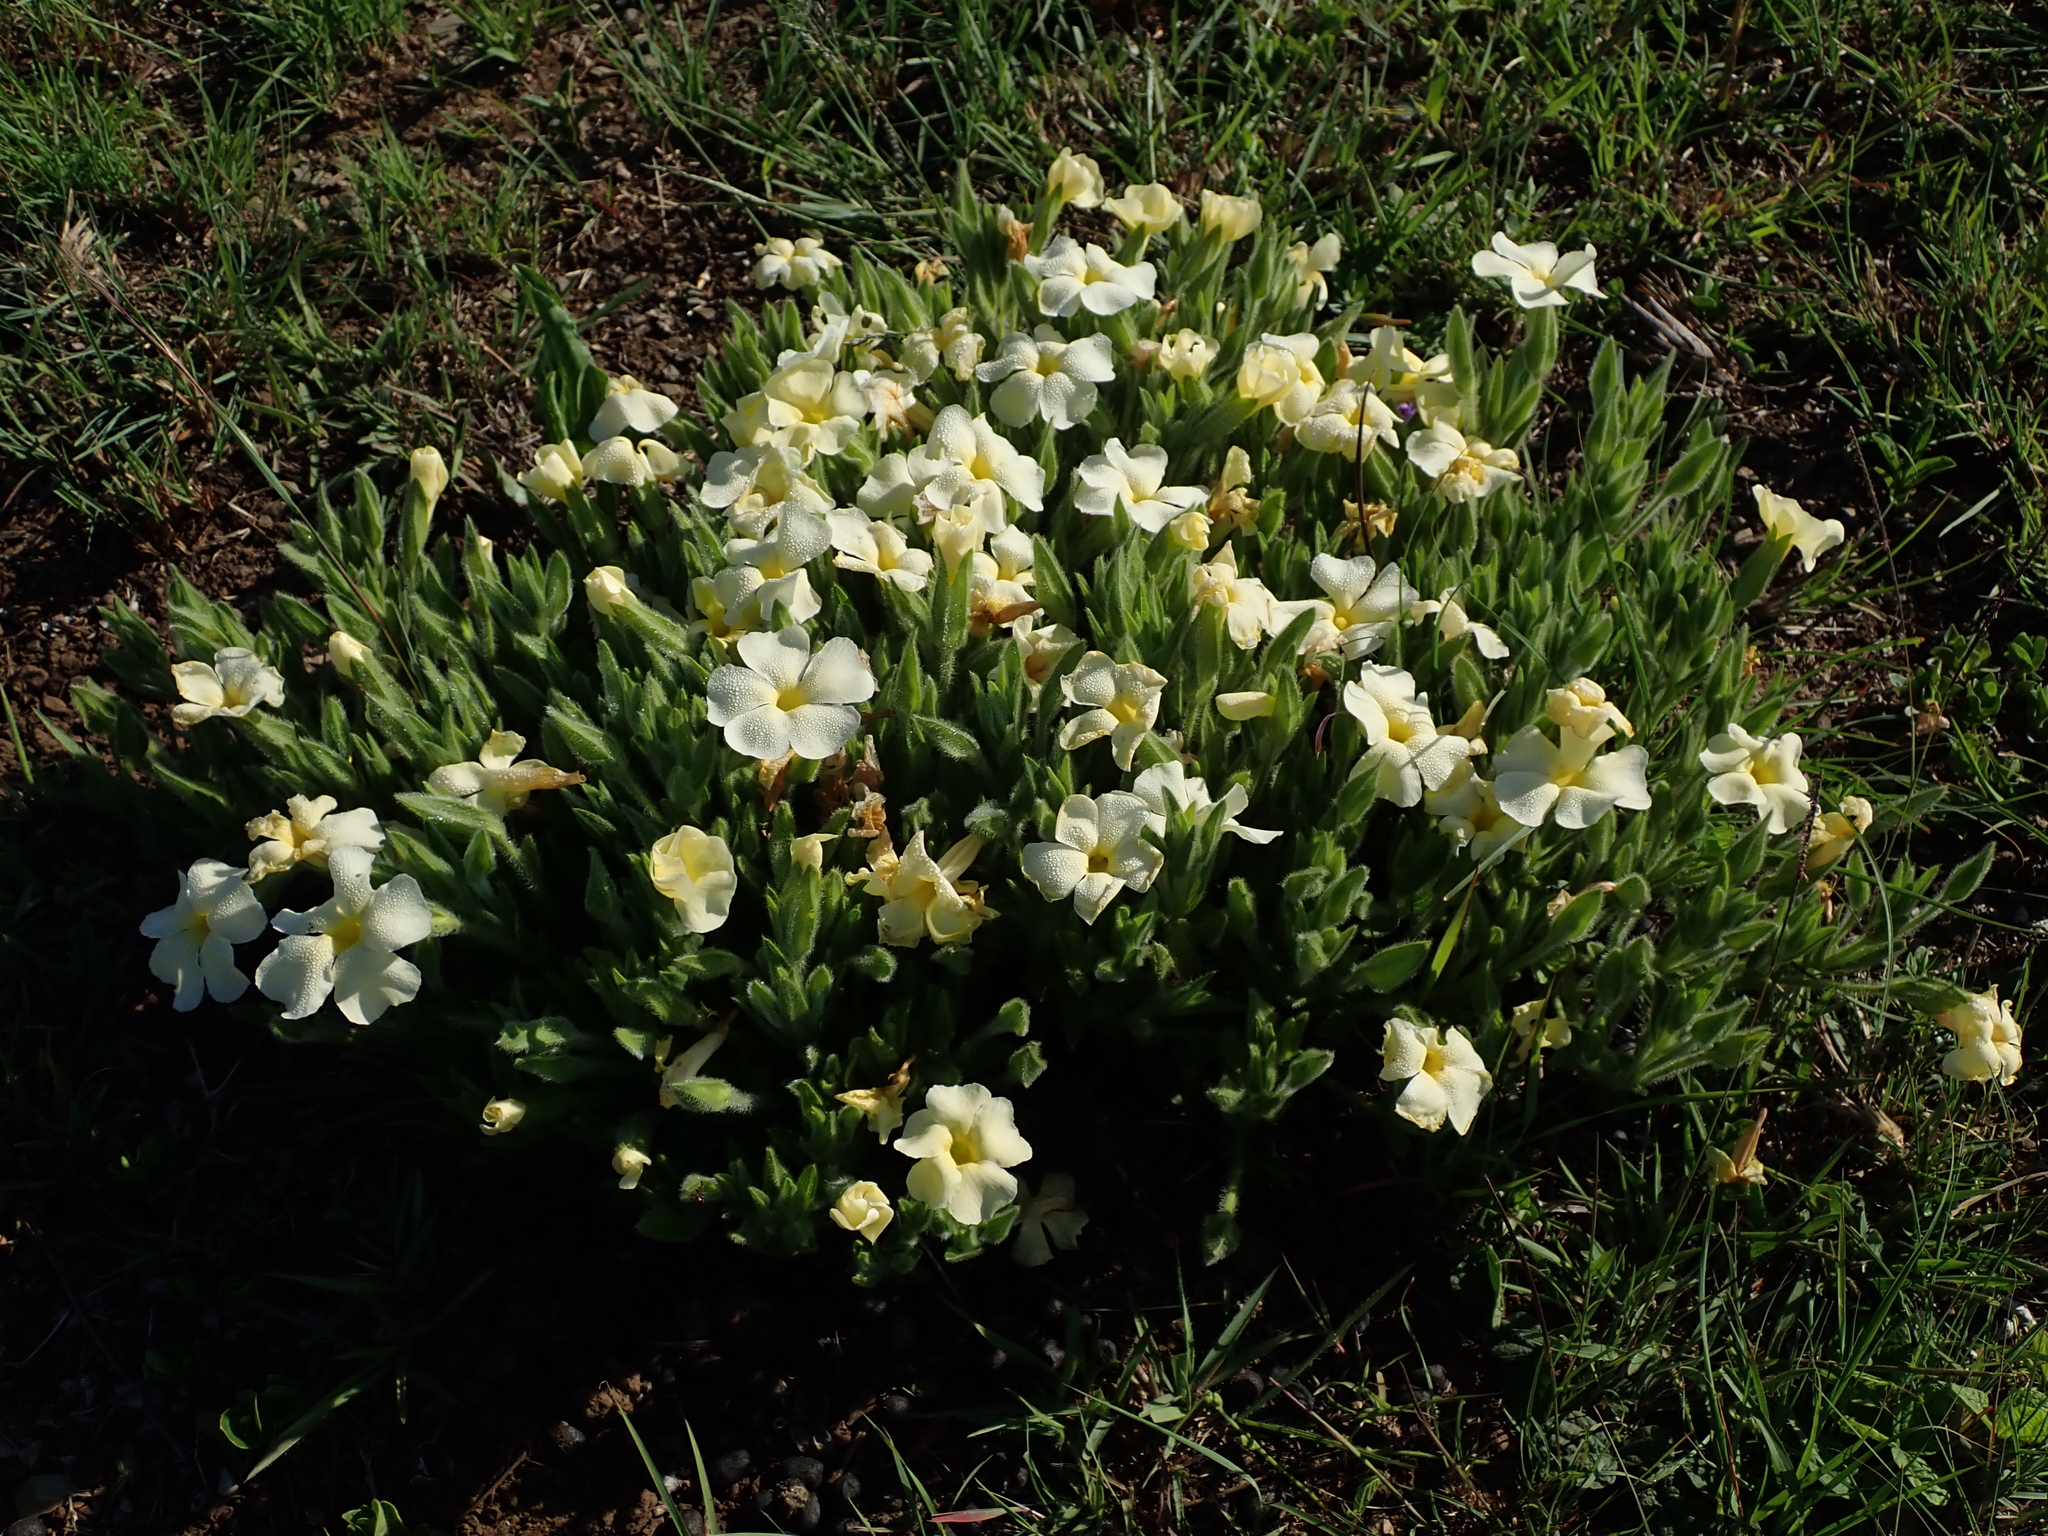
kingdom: Plantae
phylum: Tracheophyta
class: Magnoliopsida
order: Lamiales
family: Acanthaceae
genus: Thunbergia
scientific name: Thunbergia atriplicifolia
